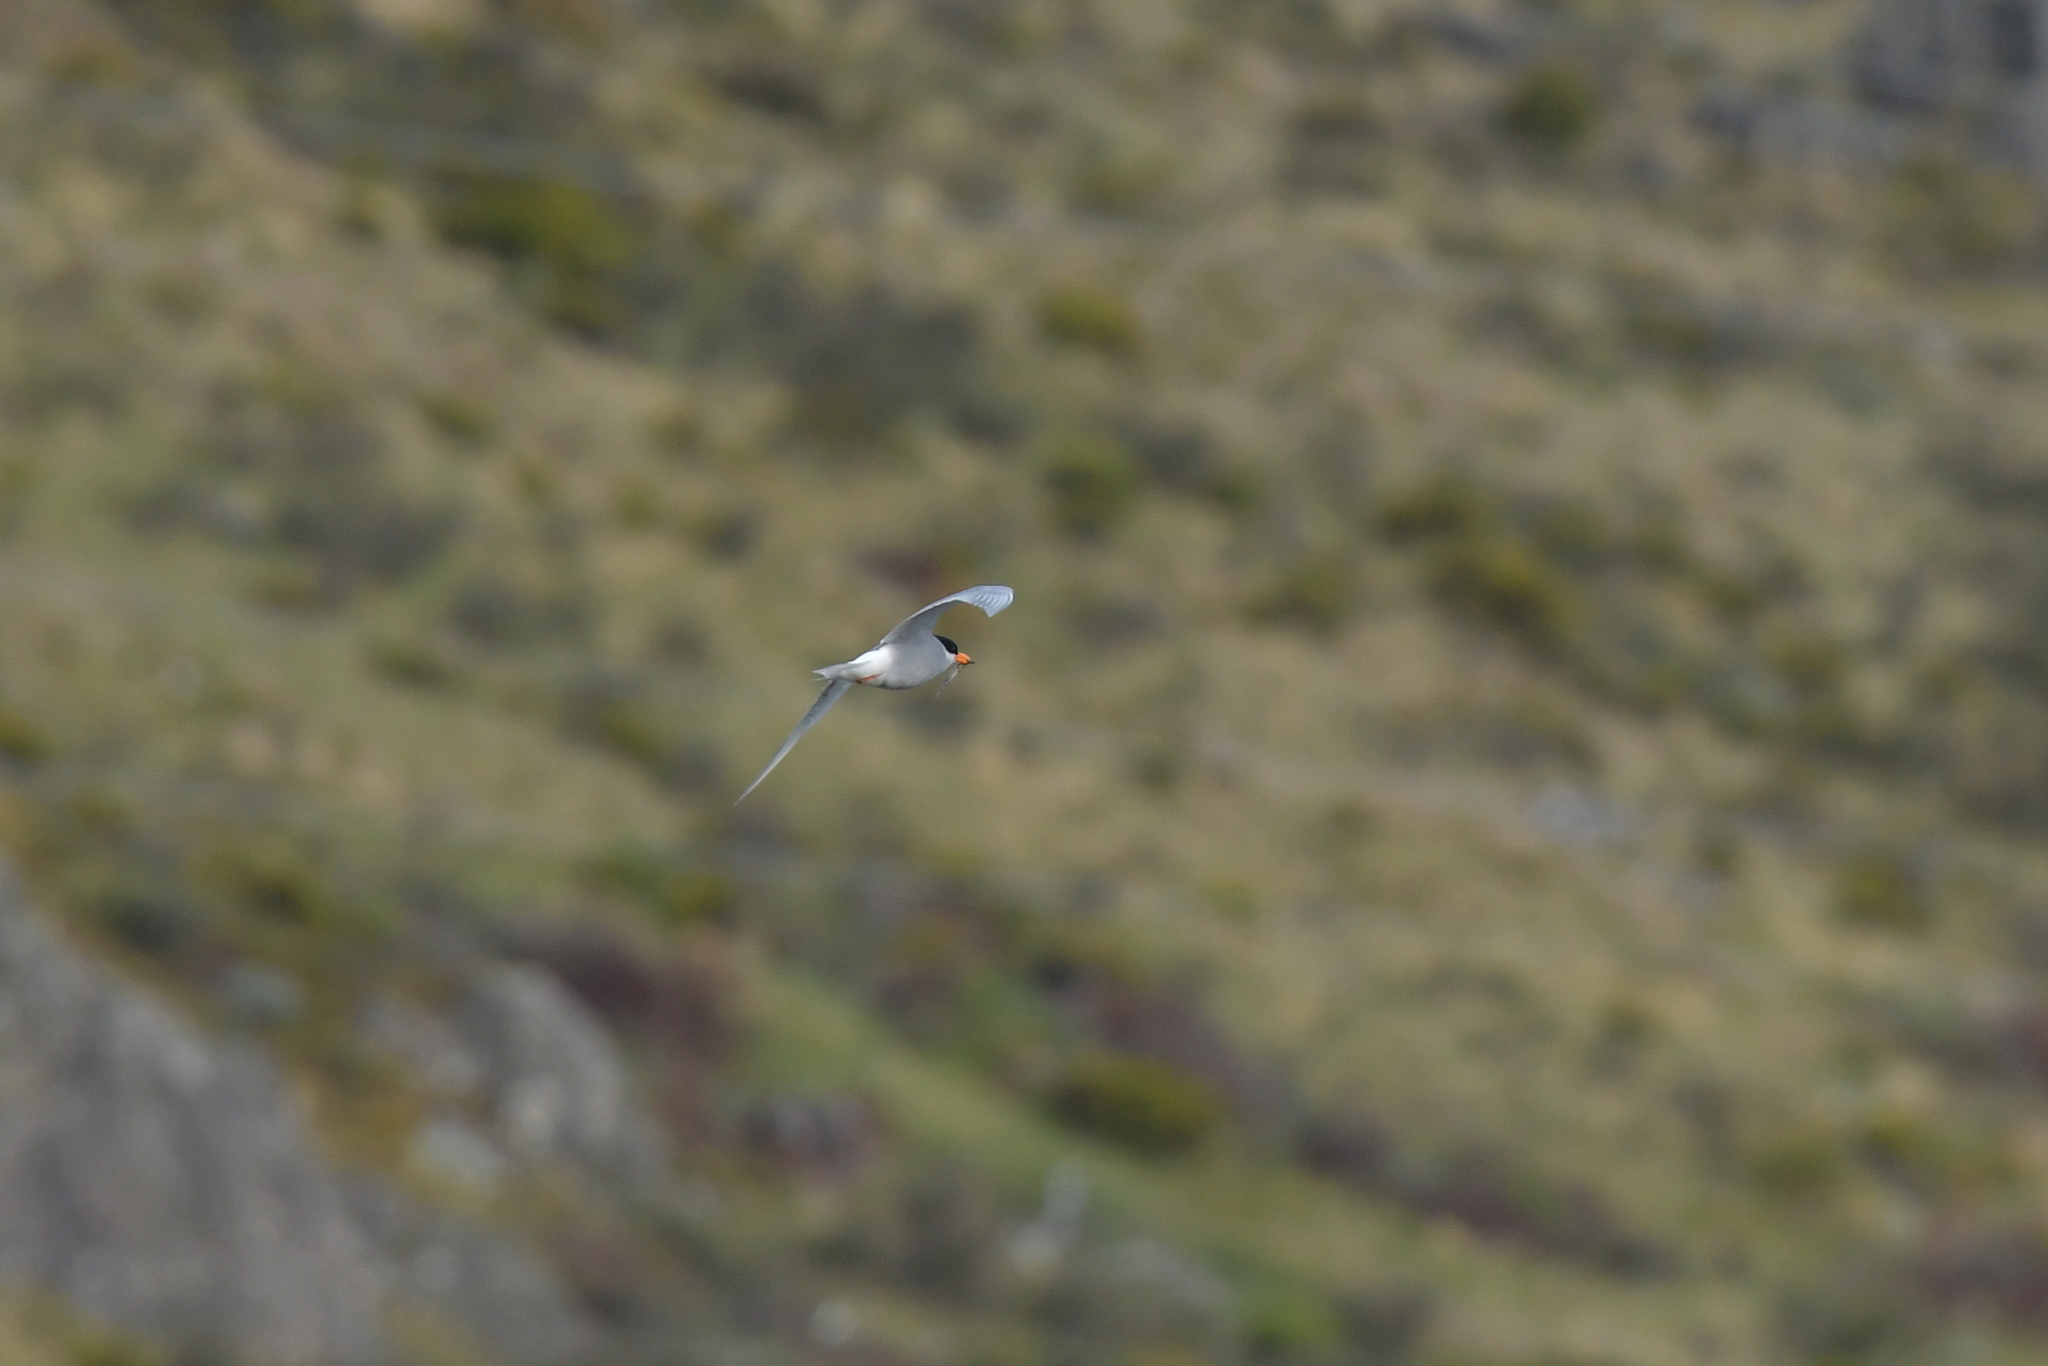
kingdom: Animalia
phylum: Chordata
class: Aves
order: Charadriiformes
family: Laridae
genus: Chlidonias
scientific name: Chlidonias albostriatus
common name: Black-fronted tern
